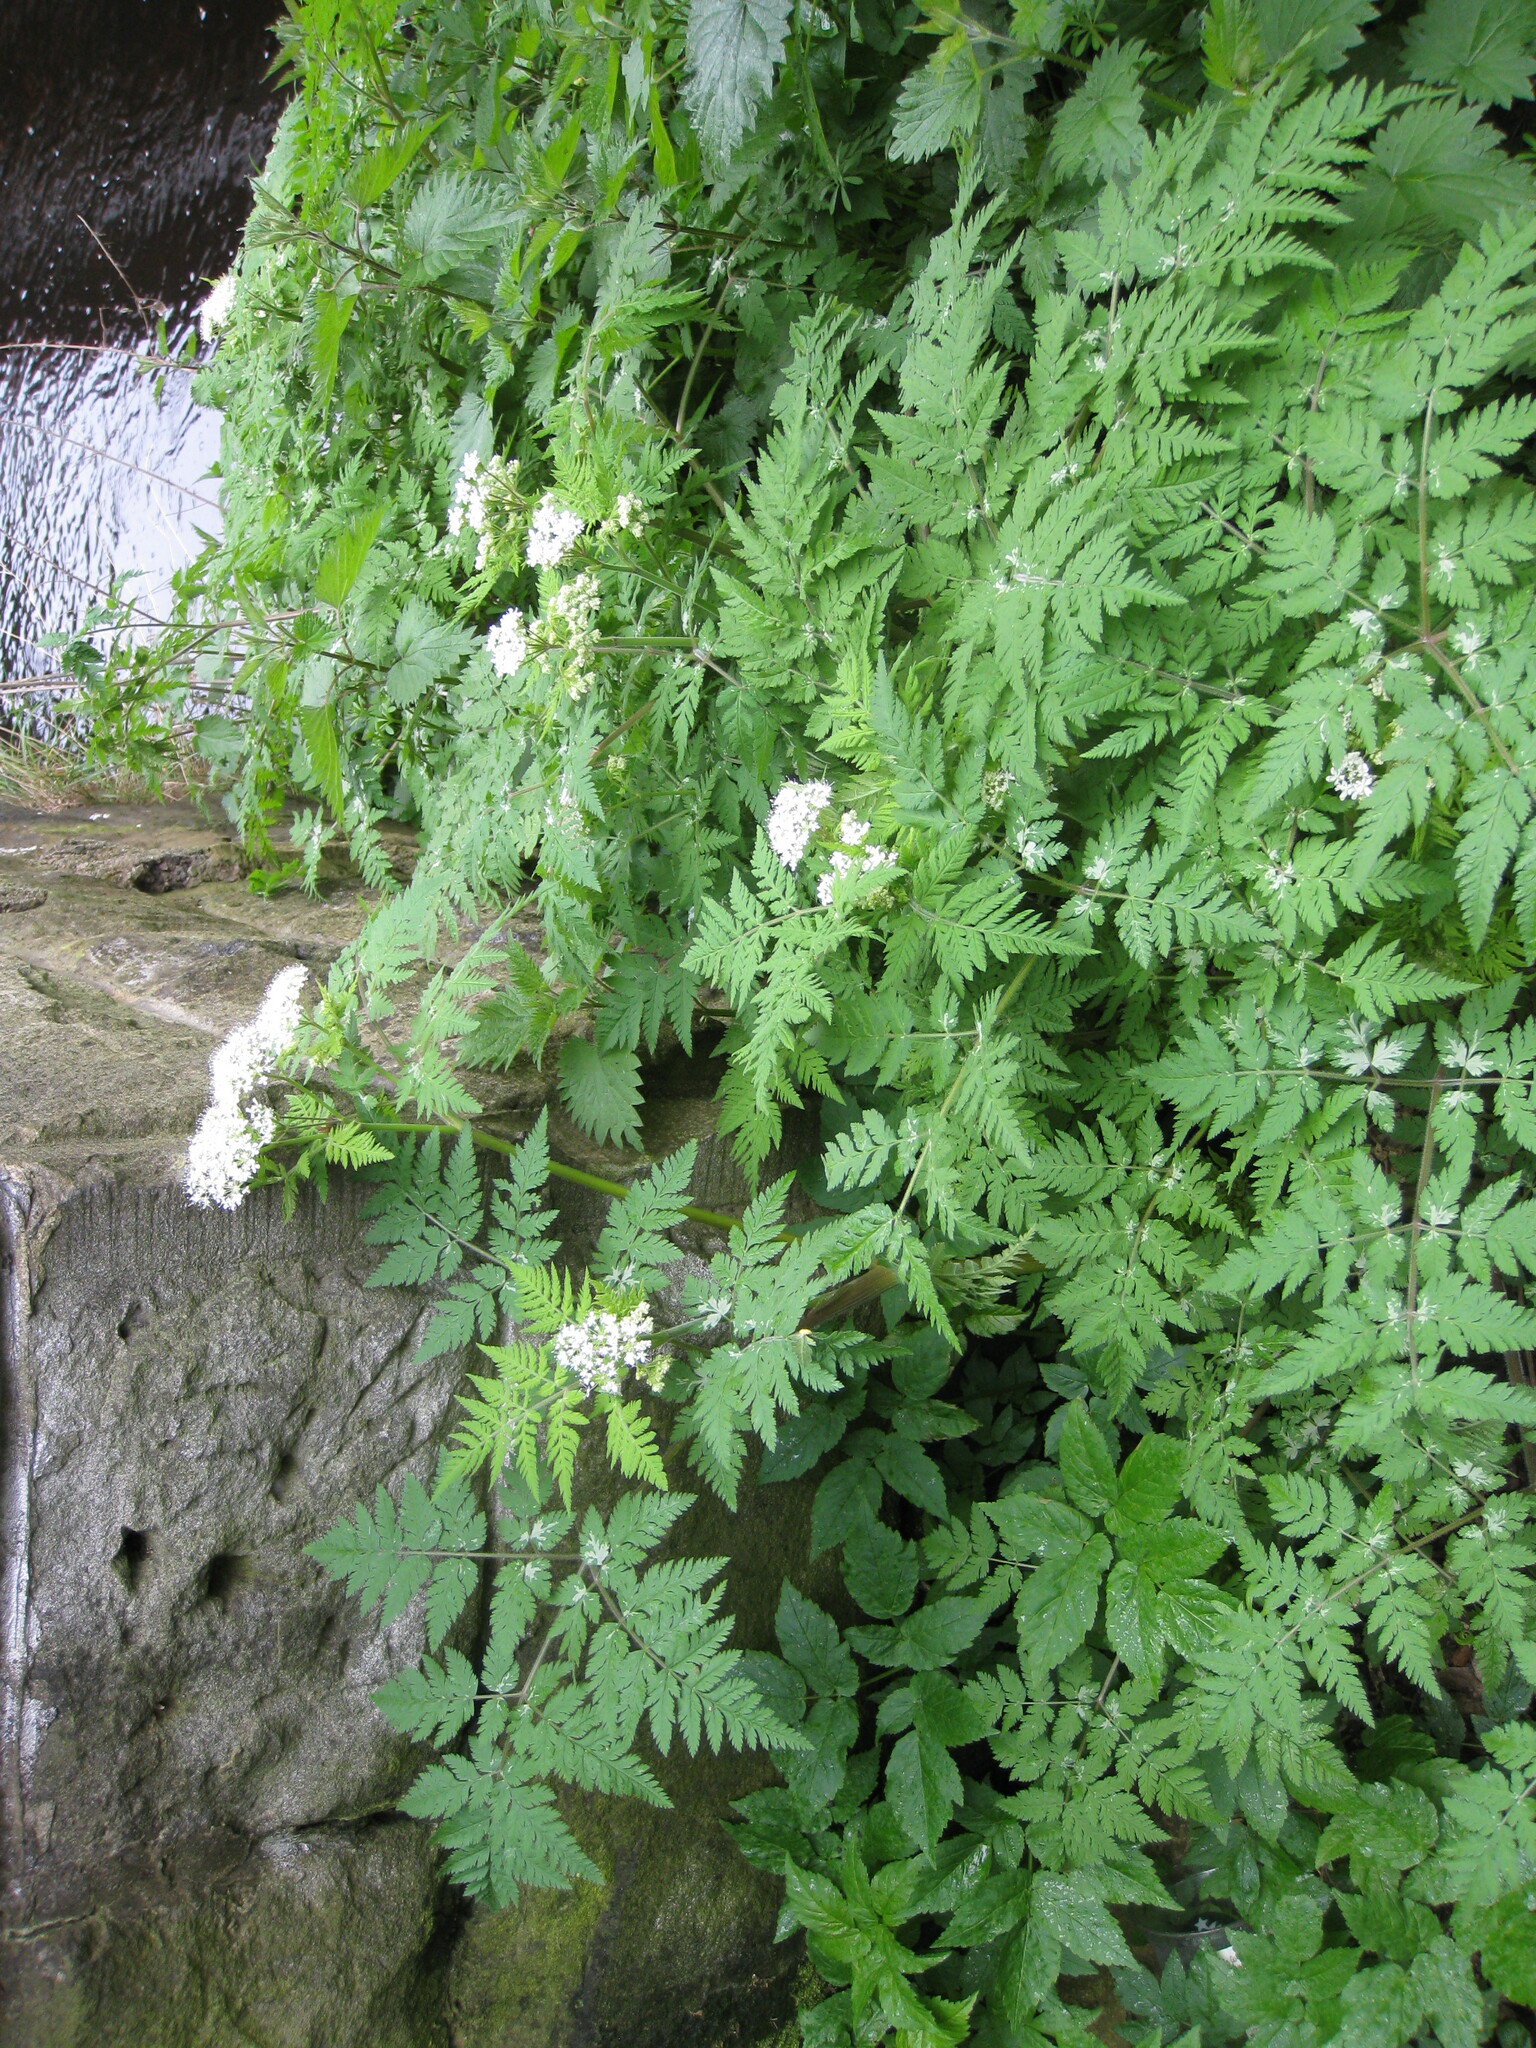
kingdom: Plantae
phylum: Tracheophyta
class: Magnoliopsida
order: Apiales
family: Apiaceae
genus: Myrrhis
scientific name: Myrrhis odorata
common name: Sweet cicely
